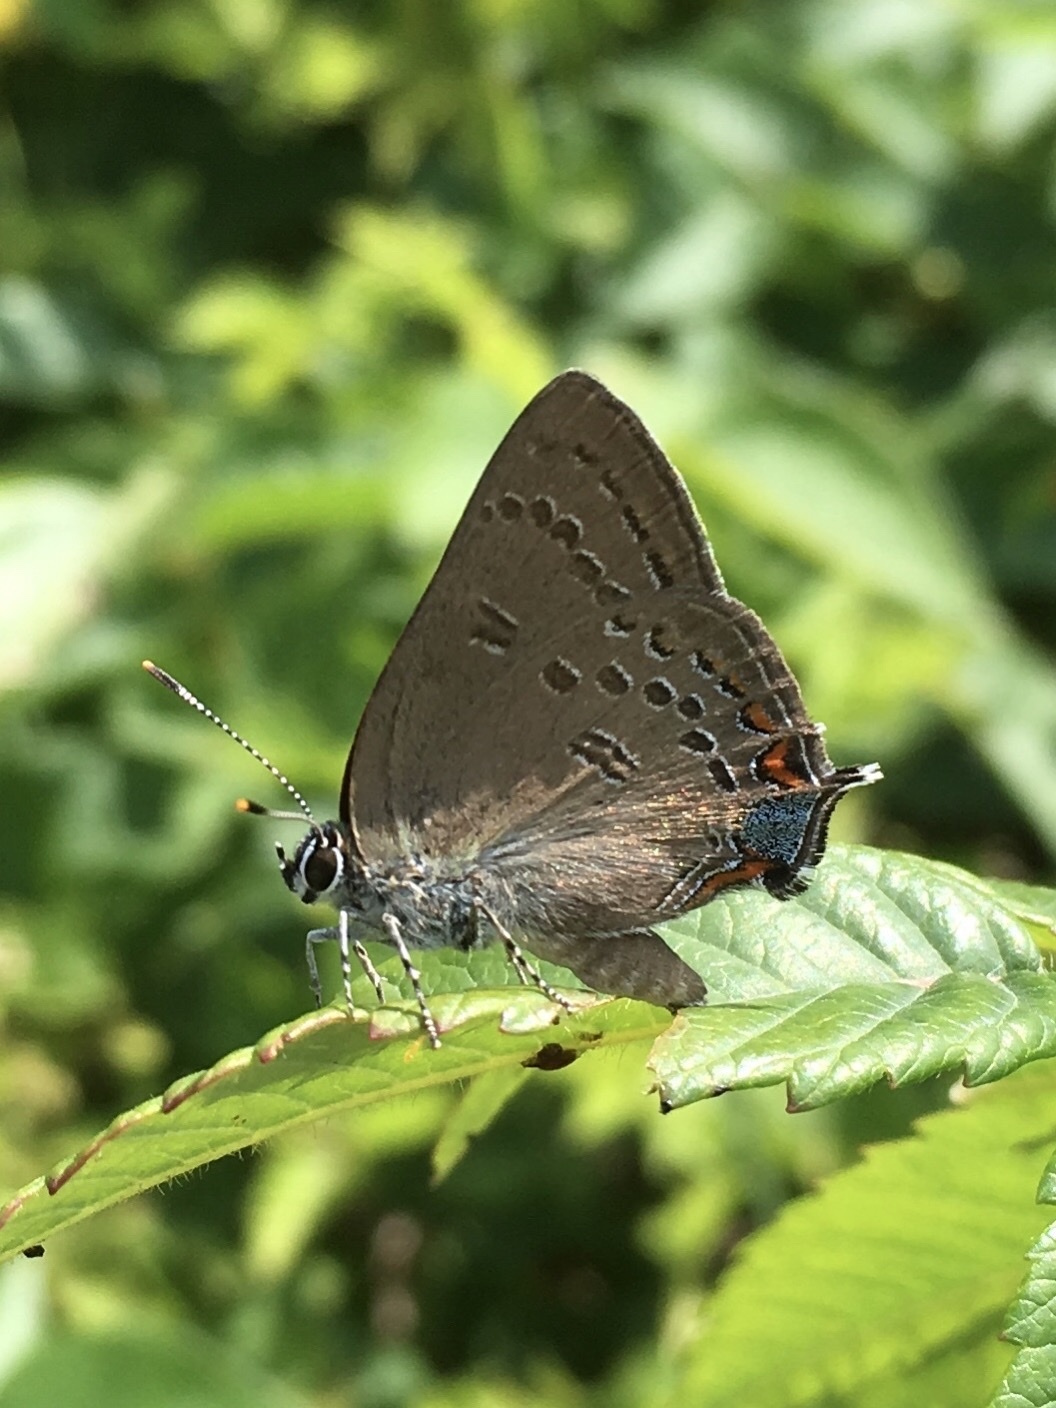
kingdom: Animalia
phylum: Arthropoda
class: Insecta
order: Lepidoptera
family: Lycaenidae
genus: Satyrium
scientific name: Satyrium edwardsii
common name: Edwards' hairstreak
